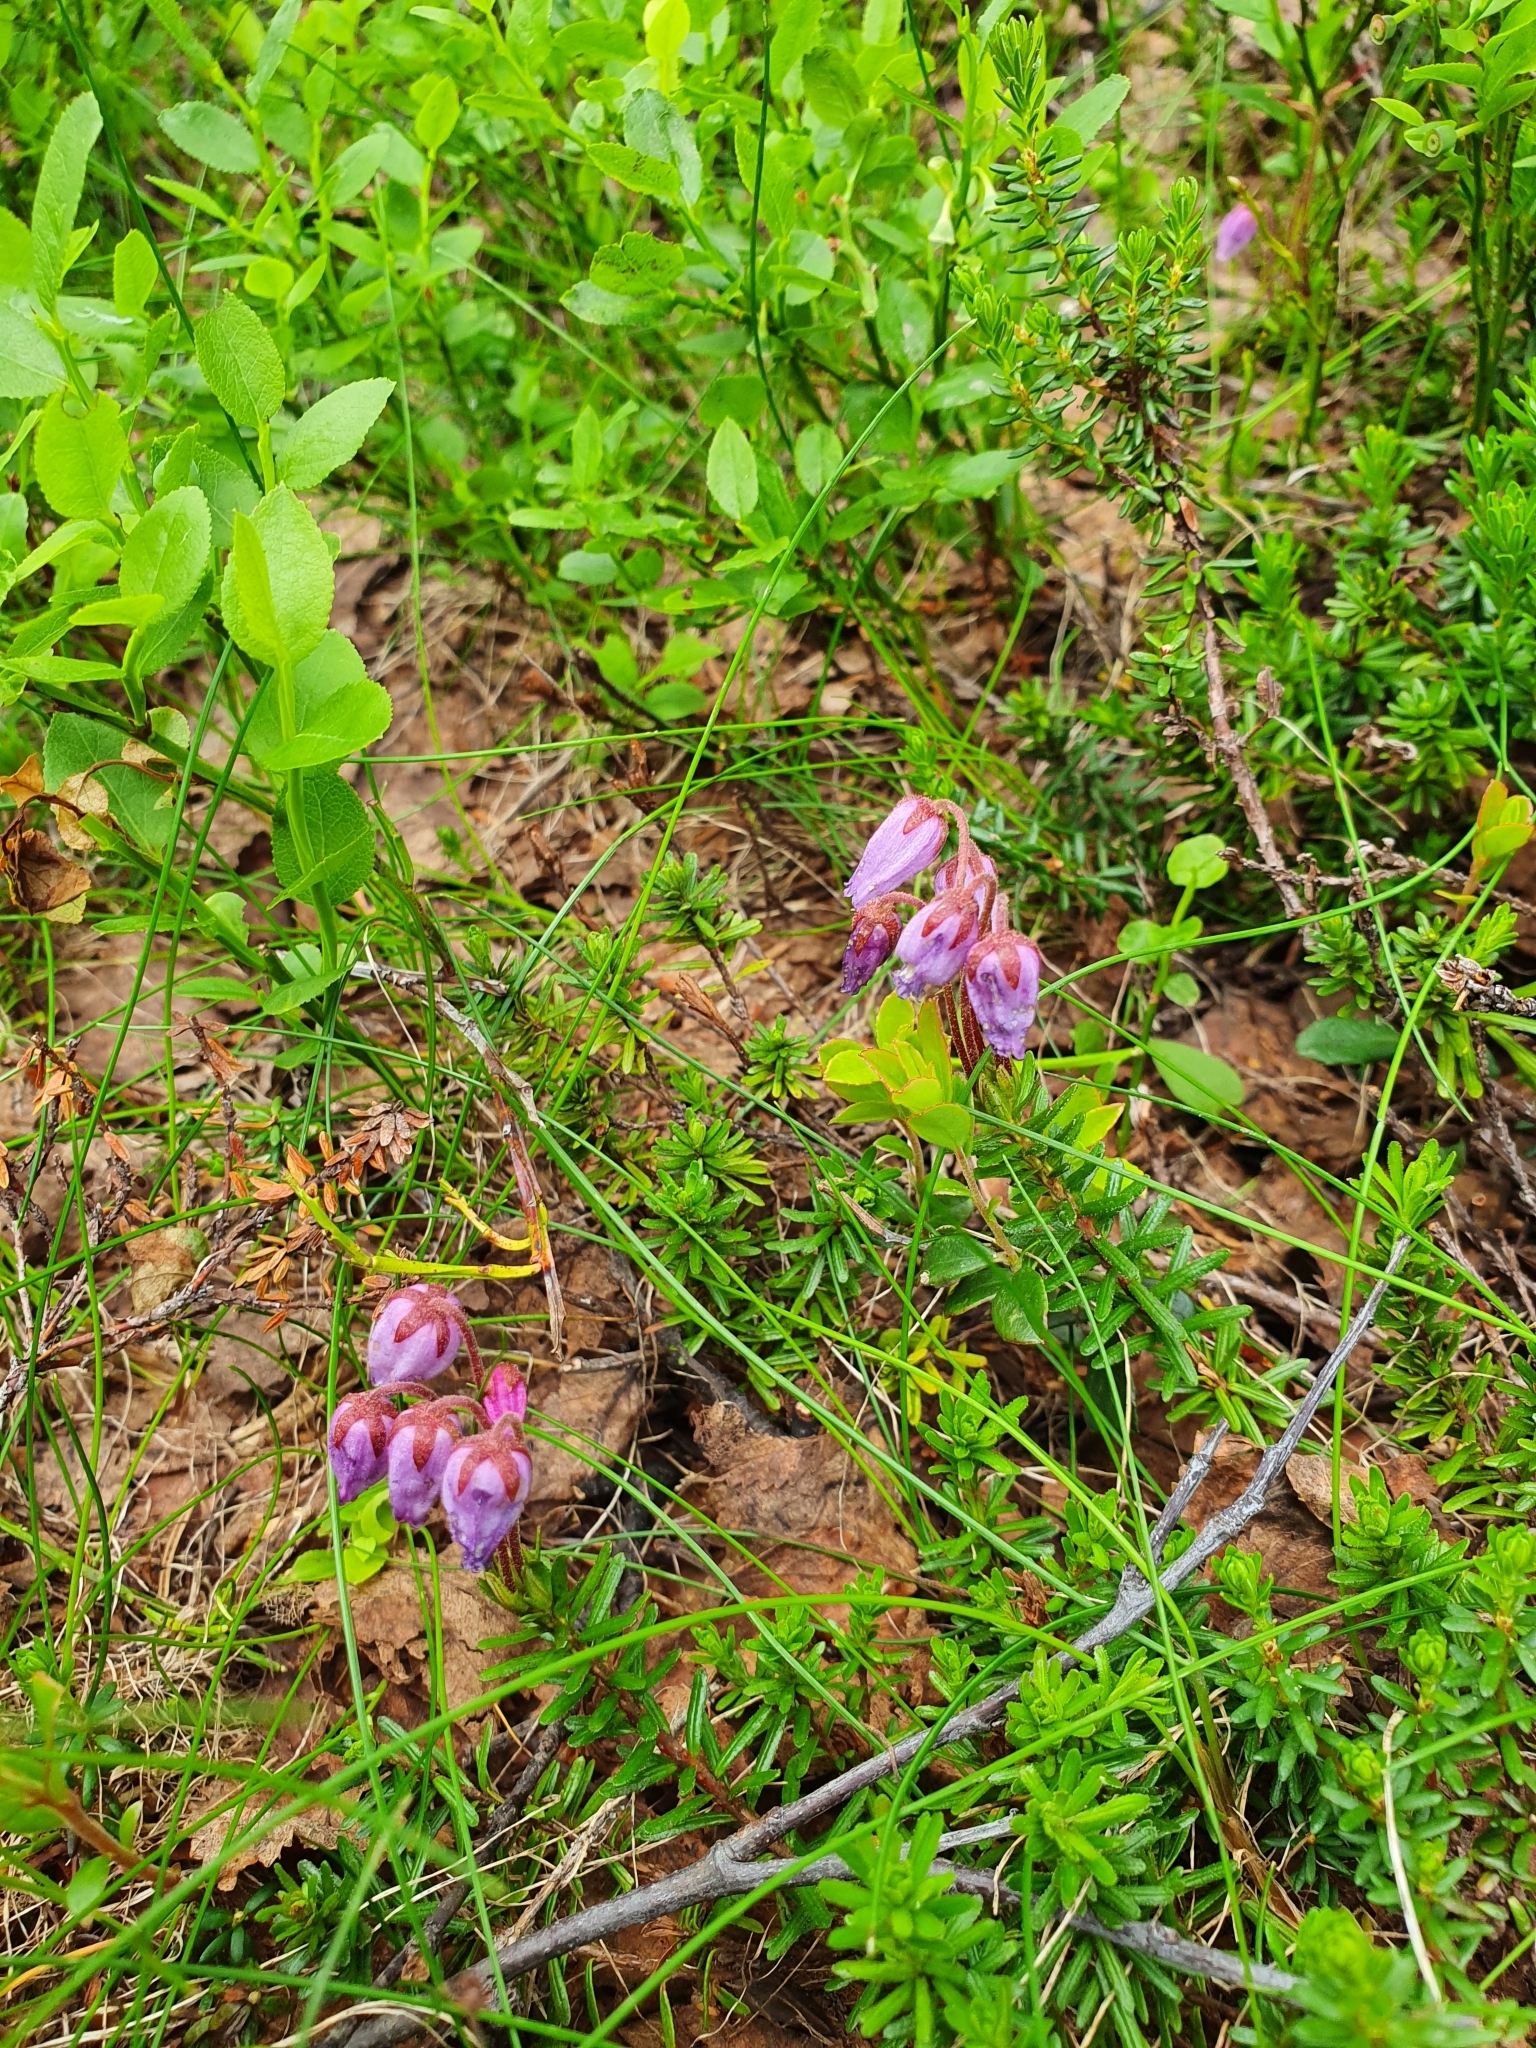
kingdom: Plantae
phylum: Tracheophyta
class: Magnoliopsida
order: Ericales
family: Ericaceae
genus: Phyllodoce
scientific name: Phyllodoce caerulea
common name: Blue heath
